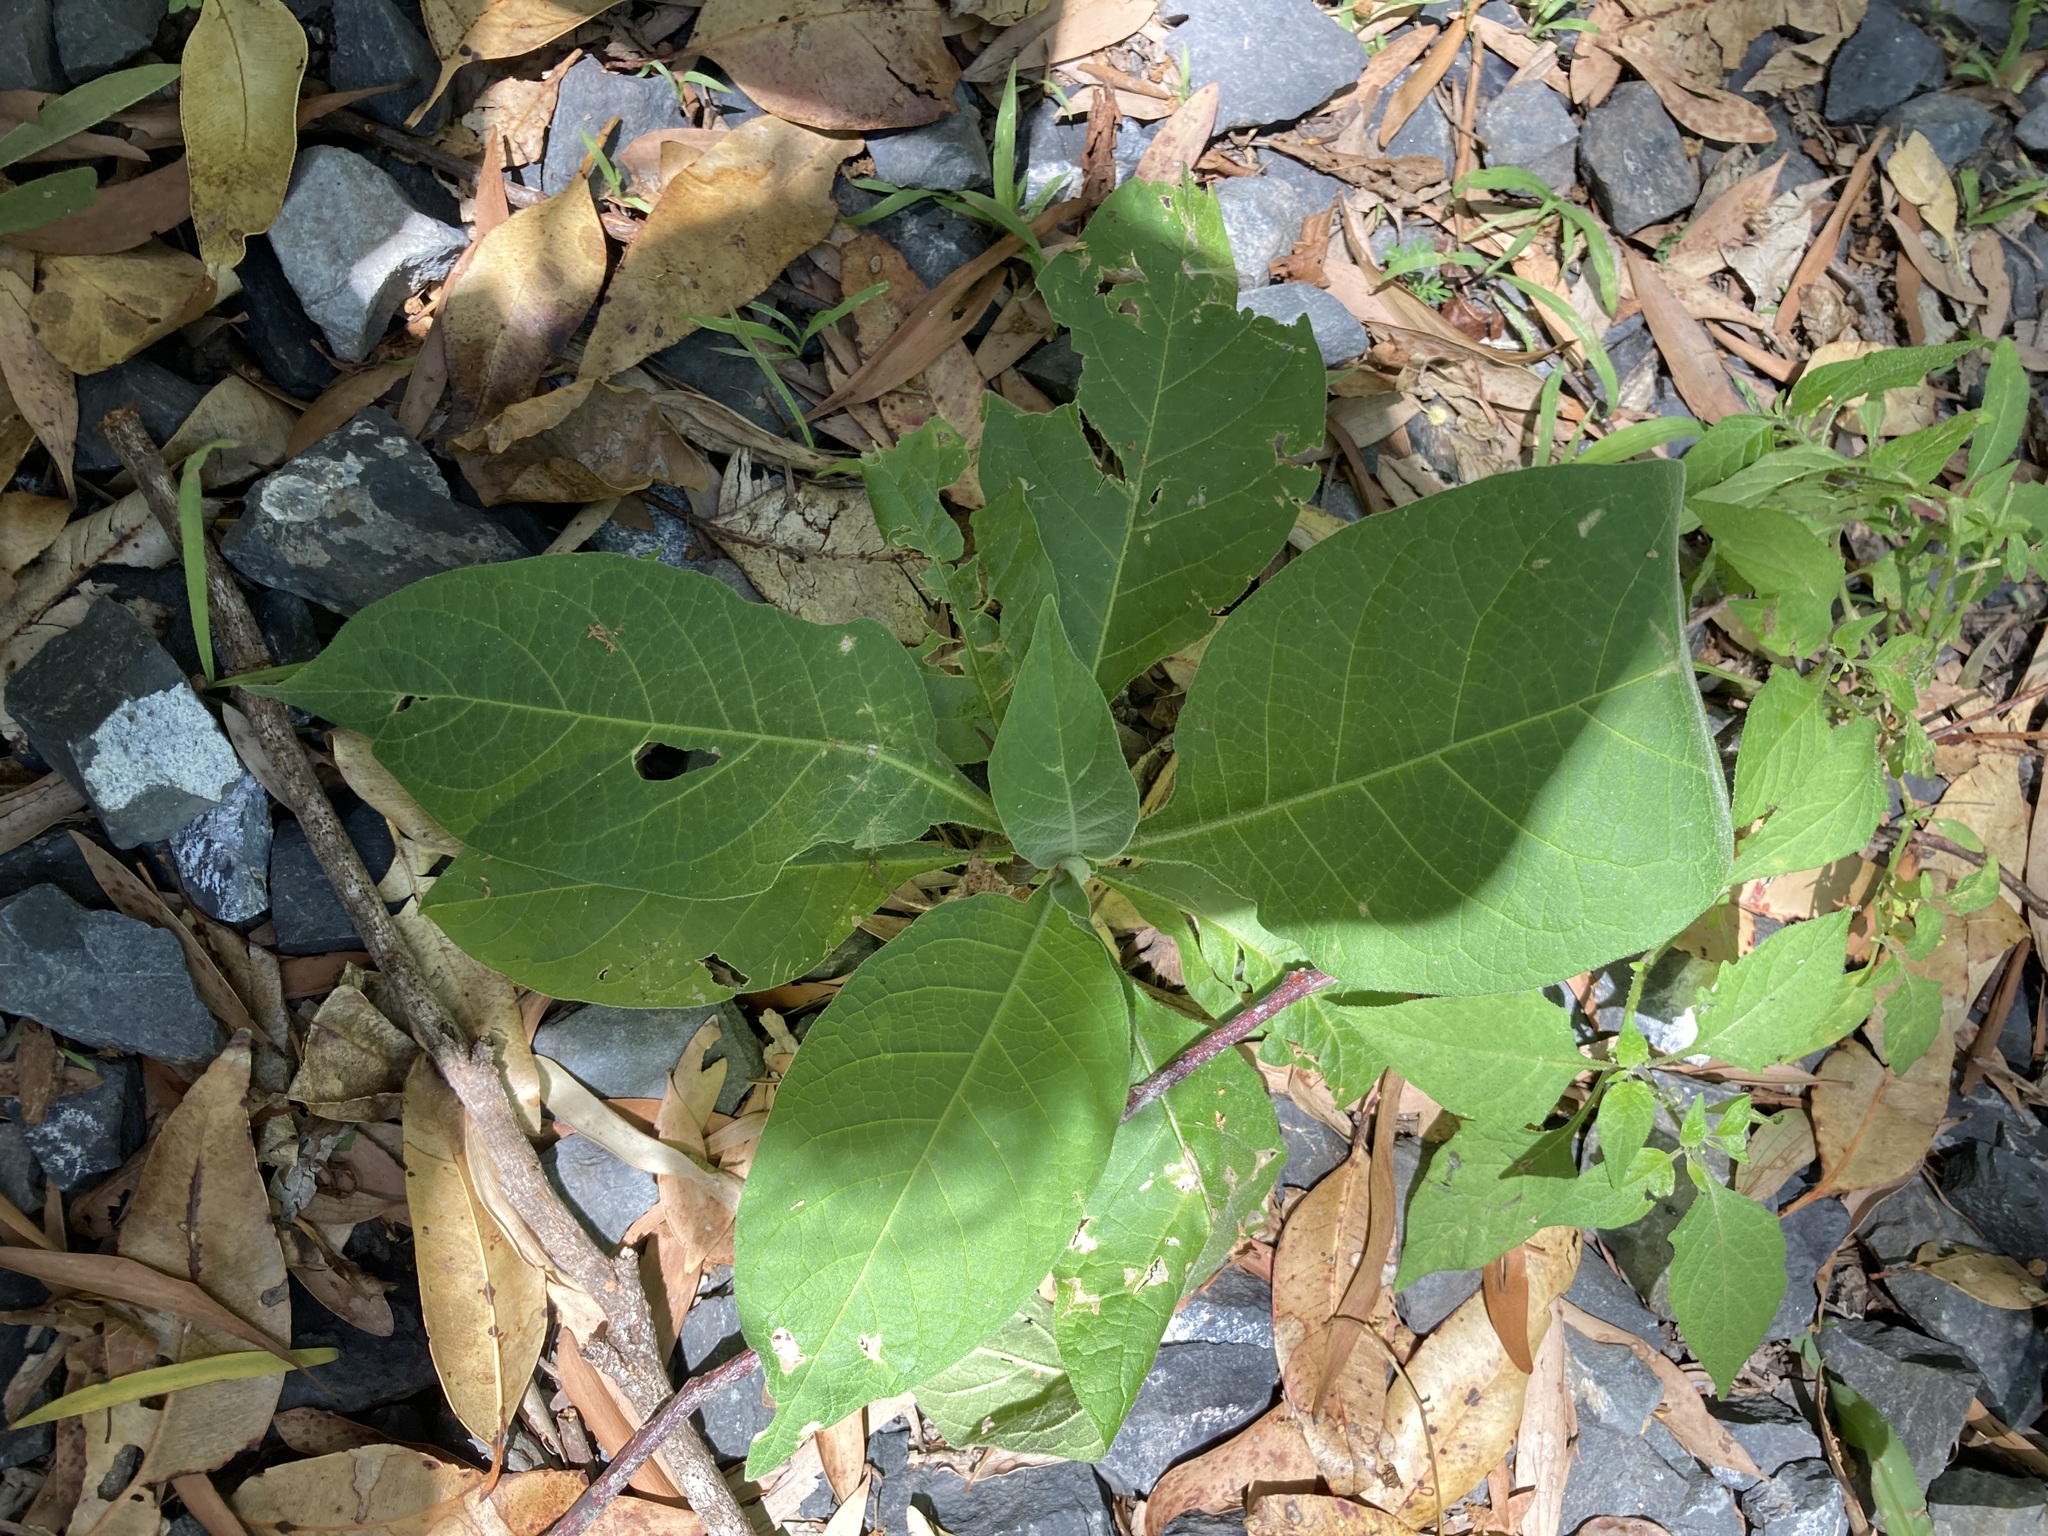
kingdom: Plantae
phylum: Tracheophyta
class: Magnoliopsida
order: Solanales
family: Solanaceae
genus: Solanum
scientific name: Solanum mauritianum
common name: Earleaf nightshade
